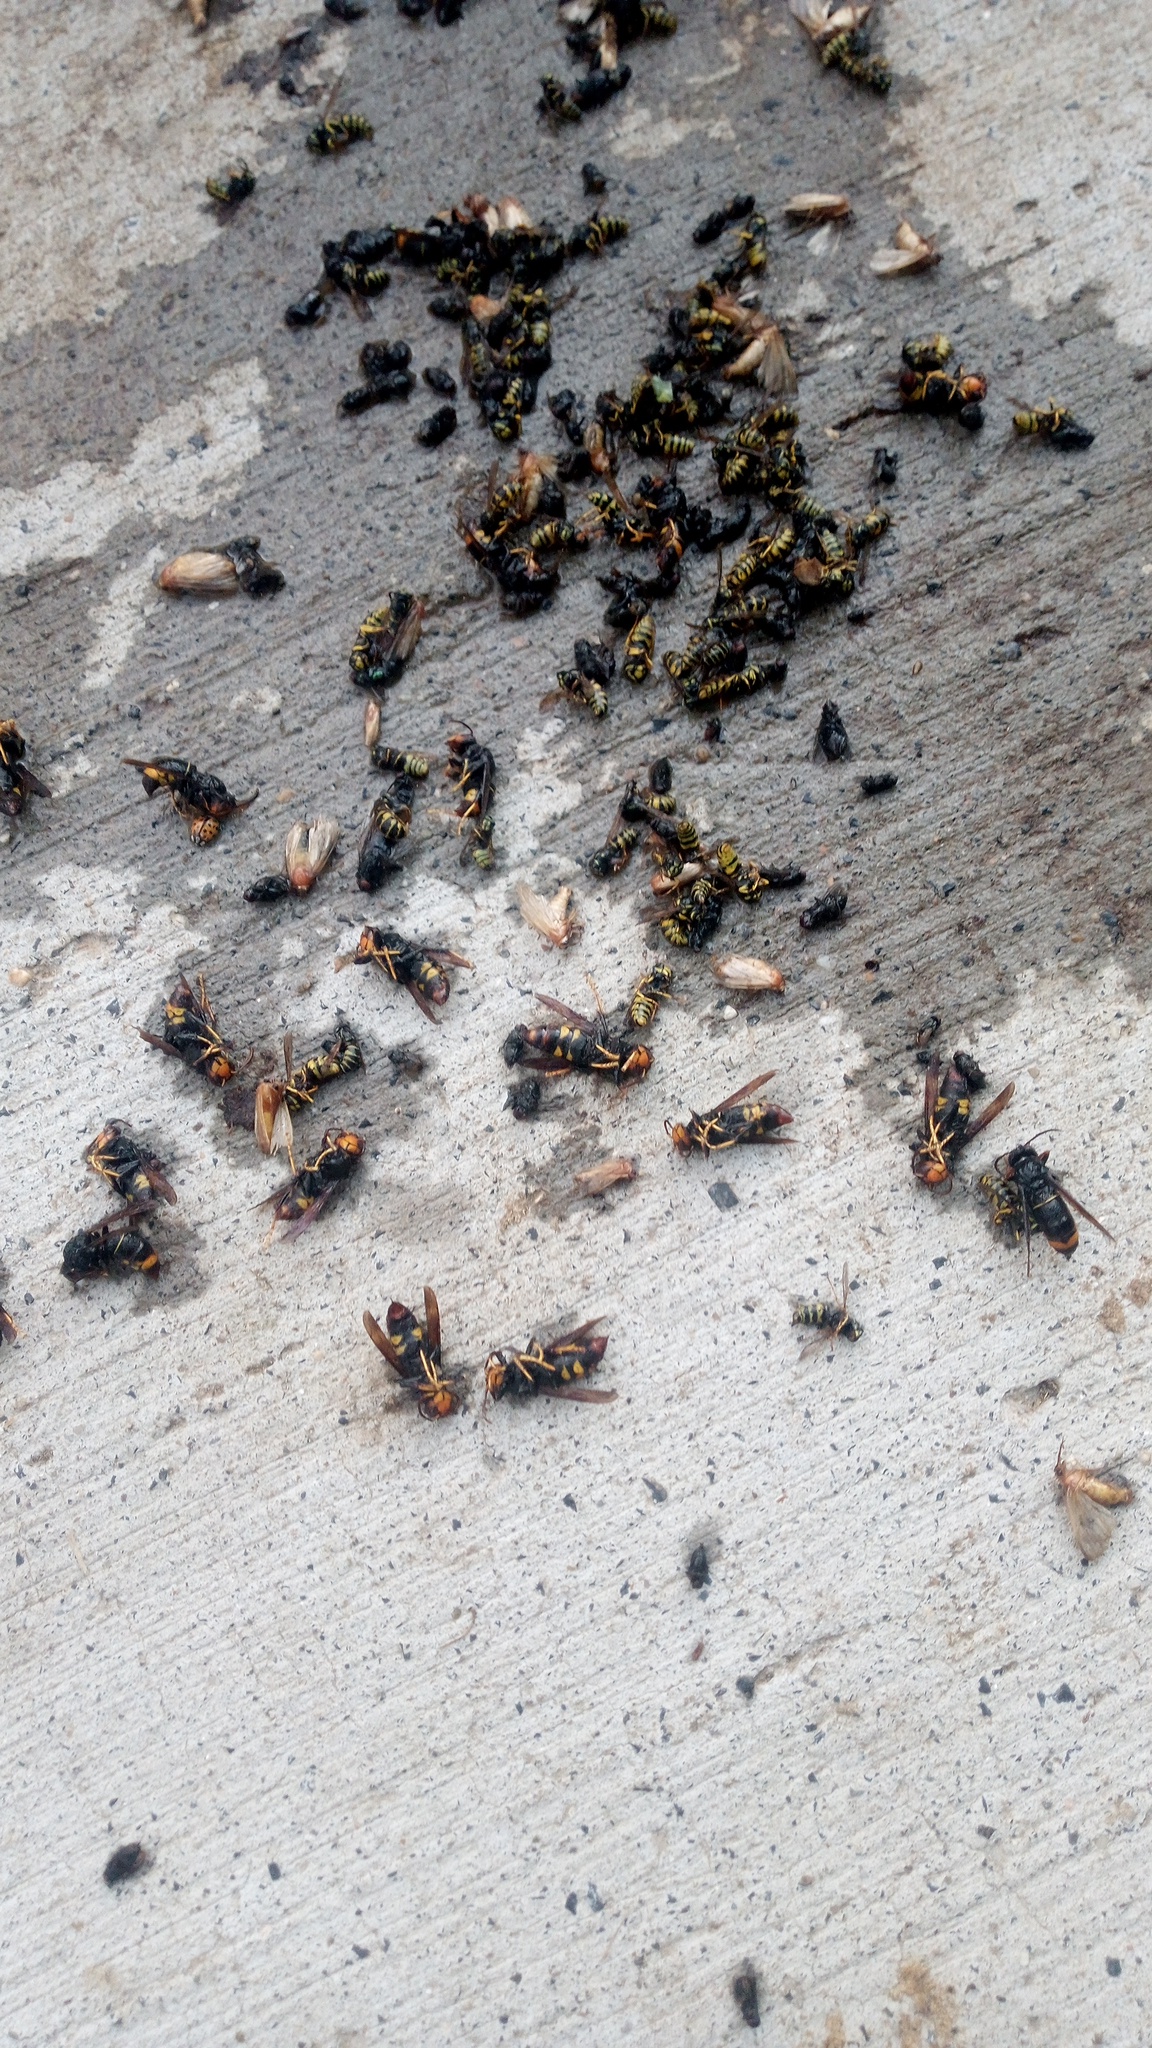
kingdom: Animalia
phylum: Arthropoda
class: Insecta
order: Hymenoptera
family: Vespidae
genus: Vespa
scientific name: Vespa velutina
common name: Asian hornet
